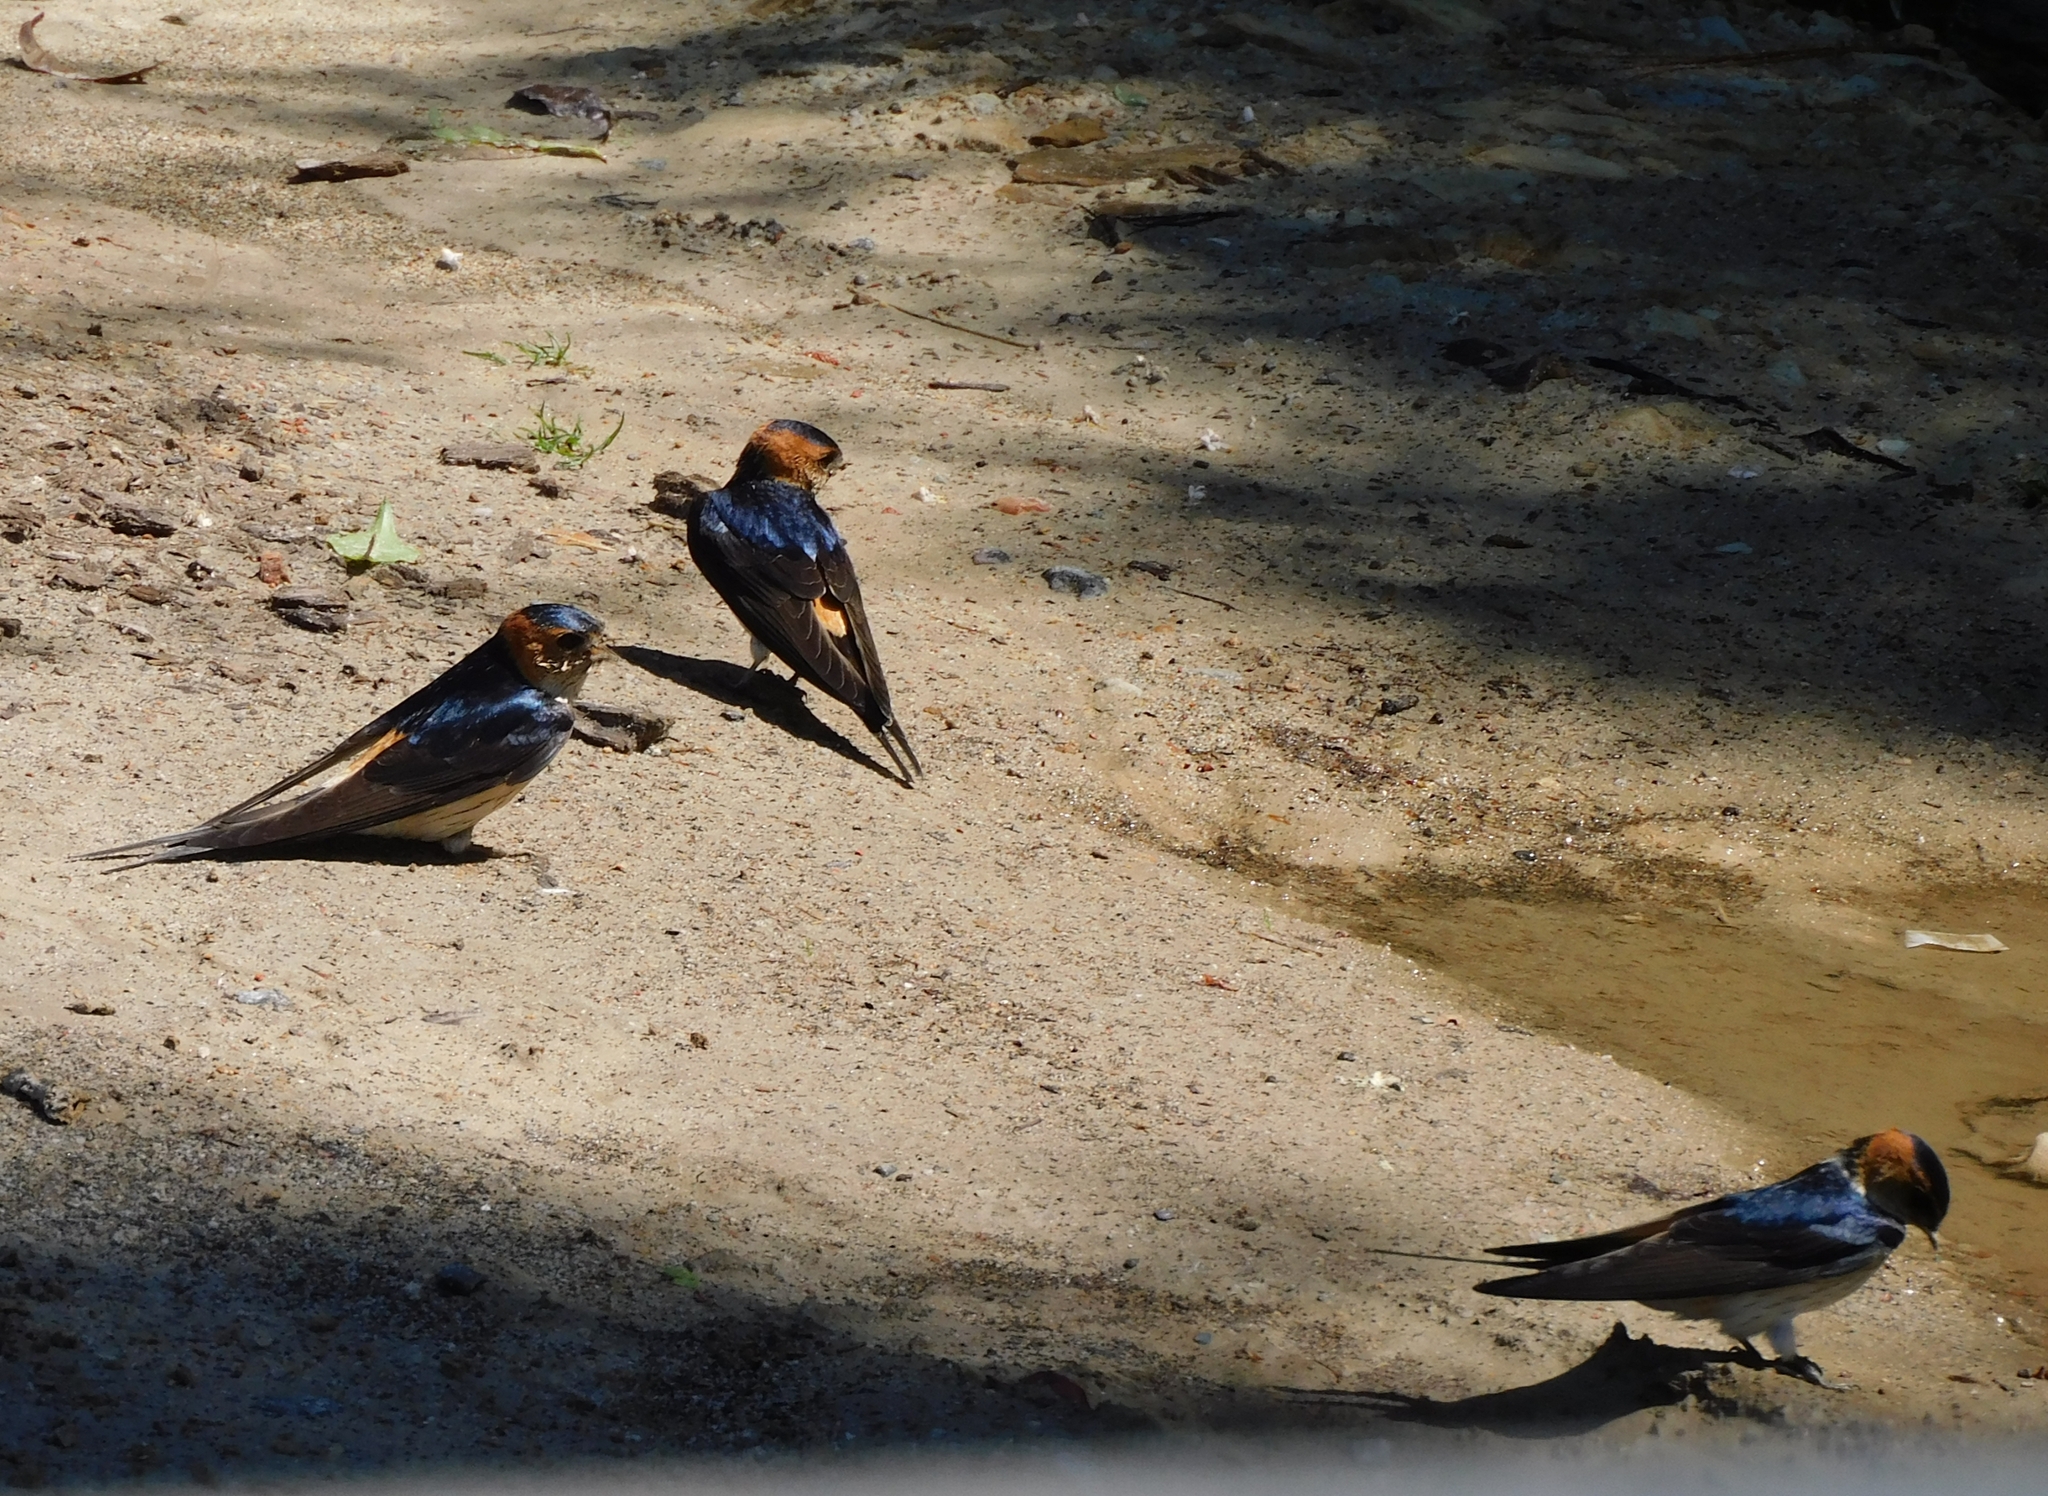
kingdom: Animalia
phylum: Chordata
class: Aves
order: Passeriformes
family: Hirundinidae
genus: Cecropis
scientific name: Cecropis daurica
